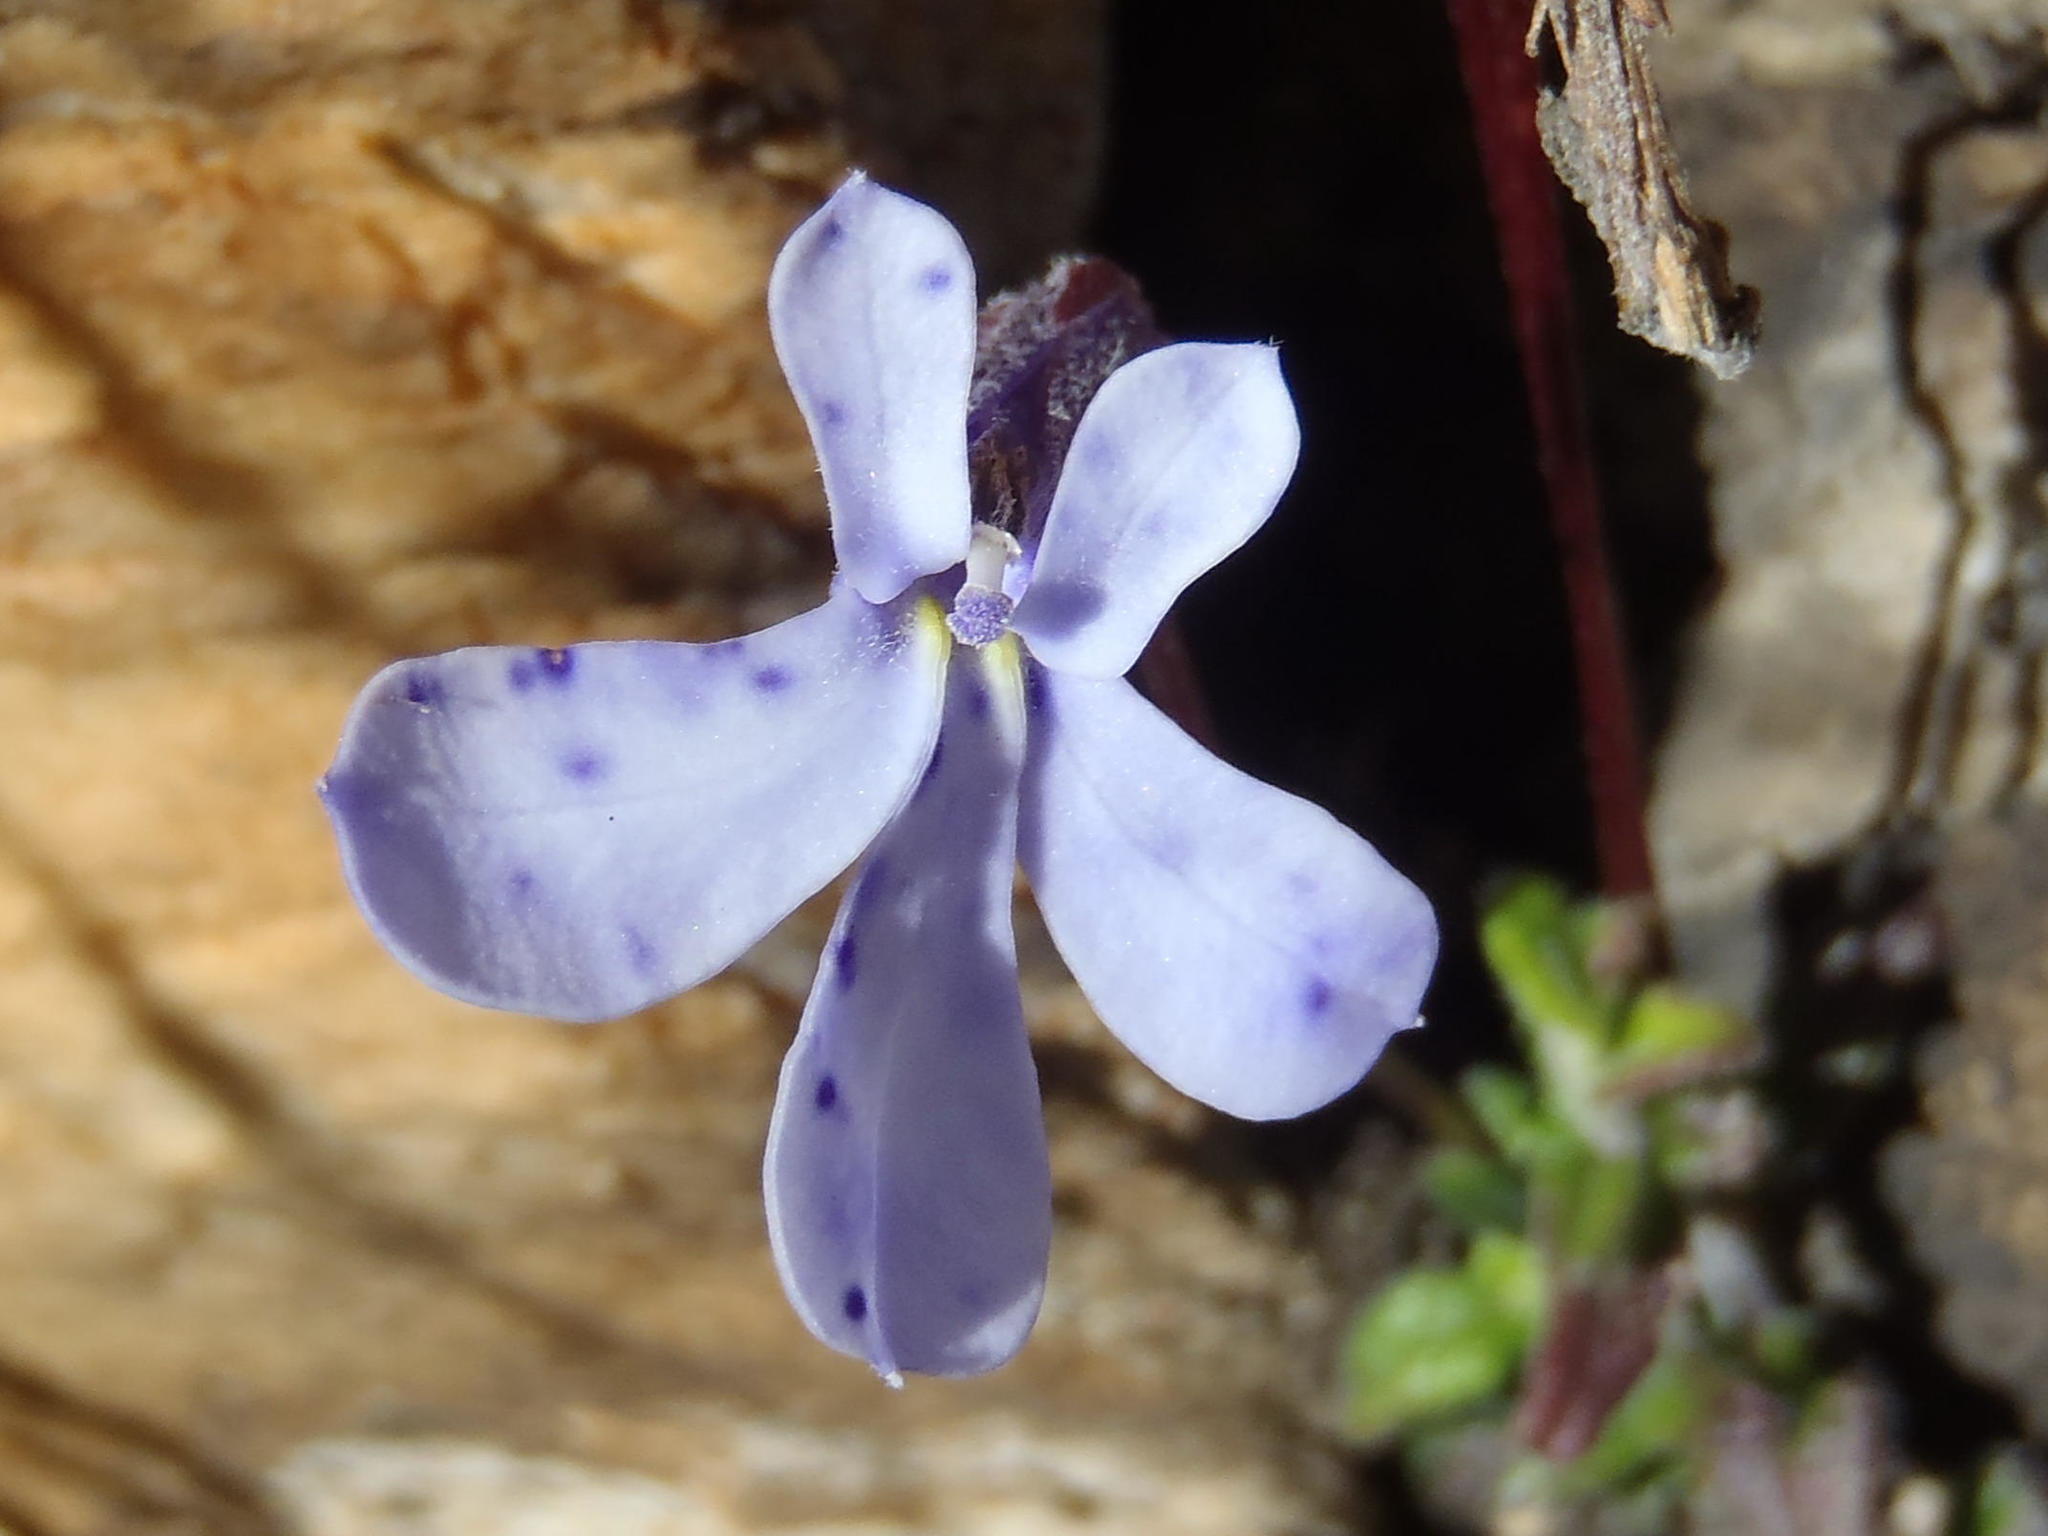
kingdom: Plantae
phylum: Tracheophyta
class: Magnoliopsida
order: Asterales
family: Campanulaceae
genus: Lobelia
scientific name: Lobelia dichroma
